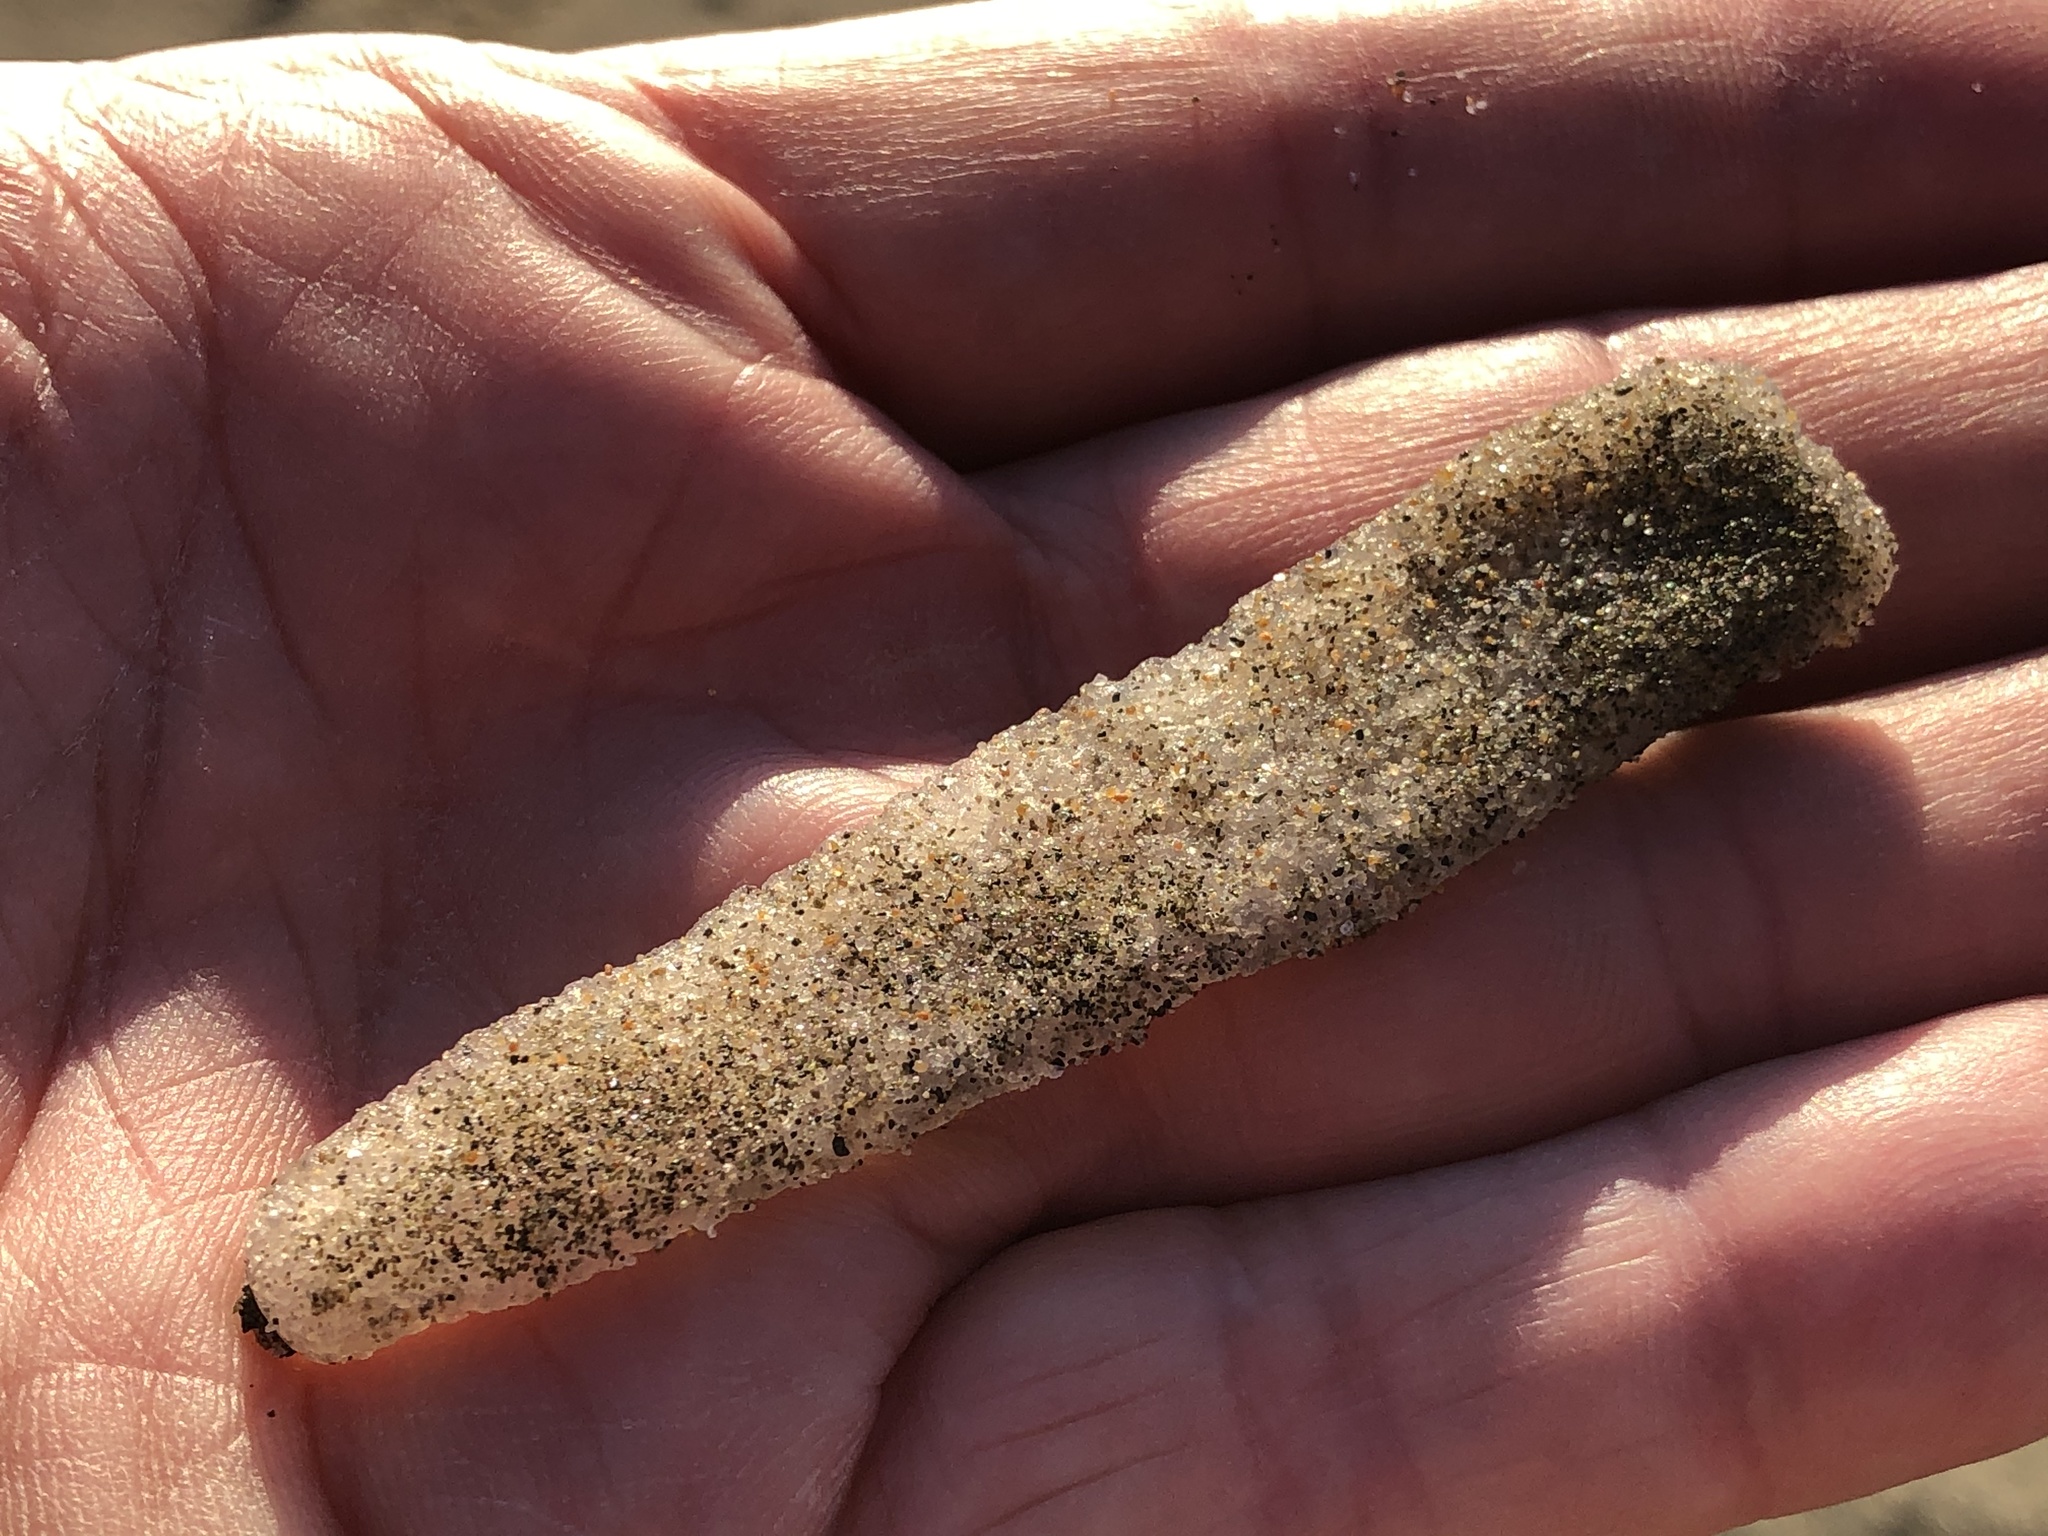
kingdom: Animalia
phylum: Chordata
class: Thaliacea
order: Pyrosomatida
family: Pyrosomatidae
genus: Pyrosoma
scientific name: Pyrosoma atlanticum
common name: Atlantic pyrosomes
